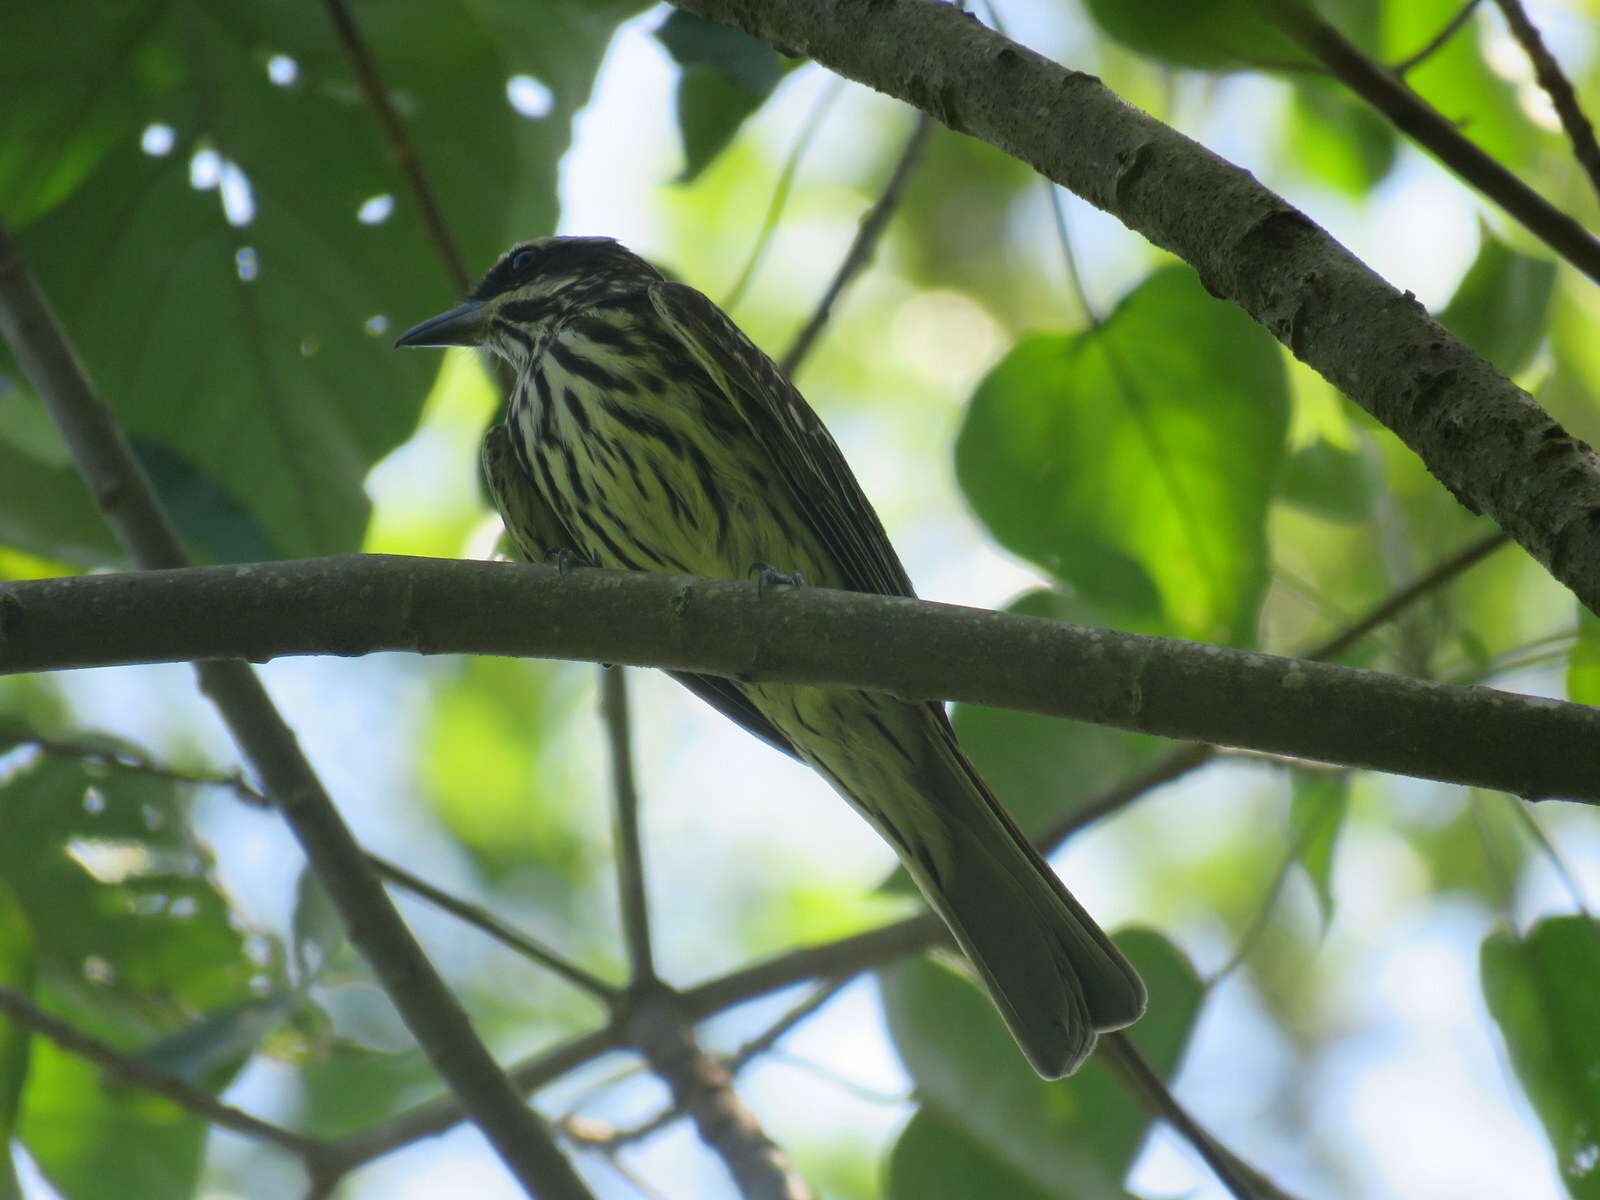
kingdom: Animalia
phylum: Chordata
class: Aves
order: Passeriformes
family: Tyrannidae
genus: Myiodynastes
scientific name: Myiodynastes maculatus
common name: Streaked flycatcher
